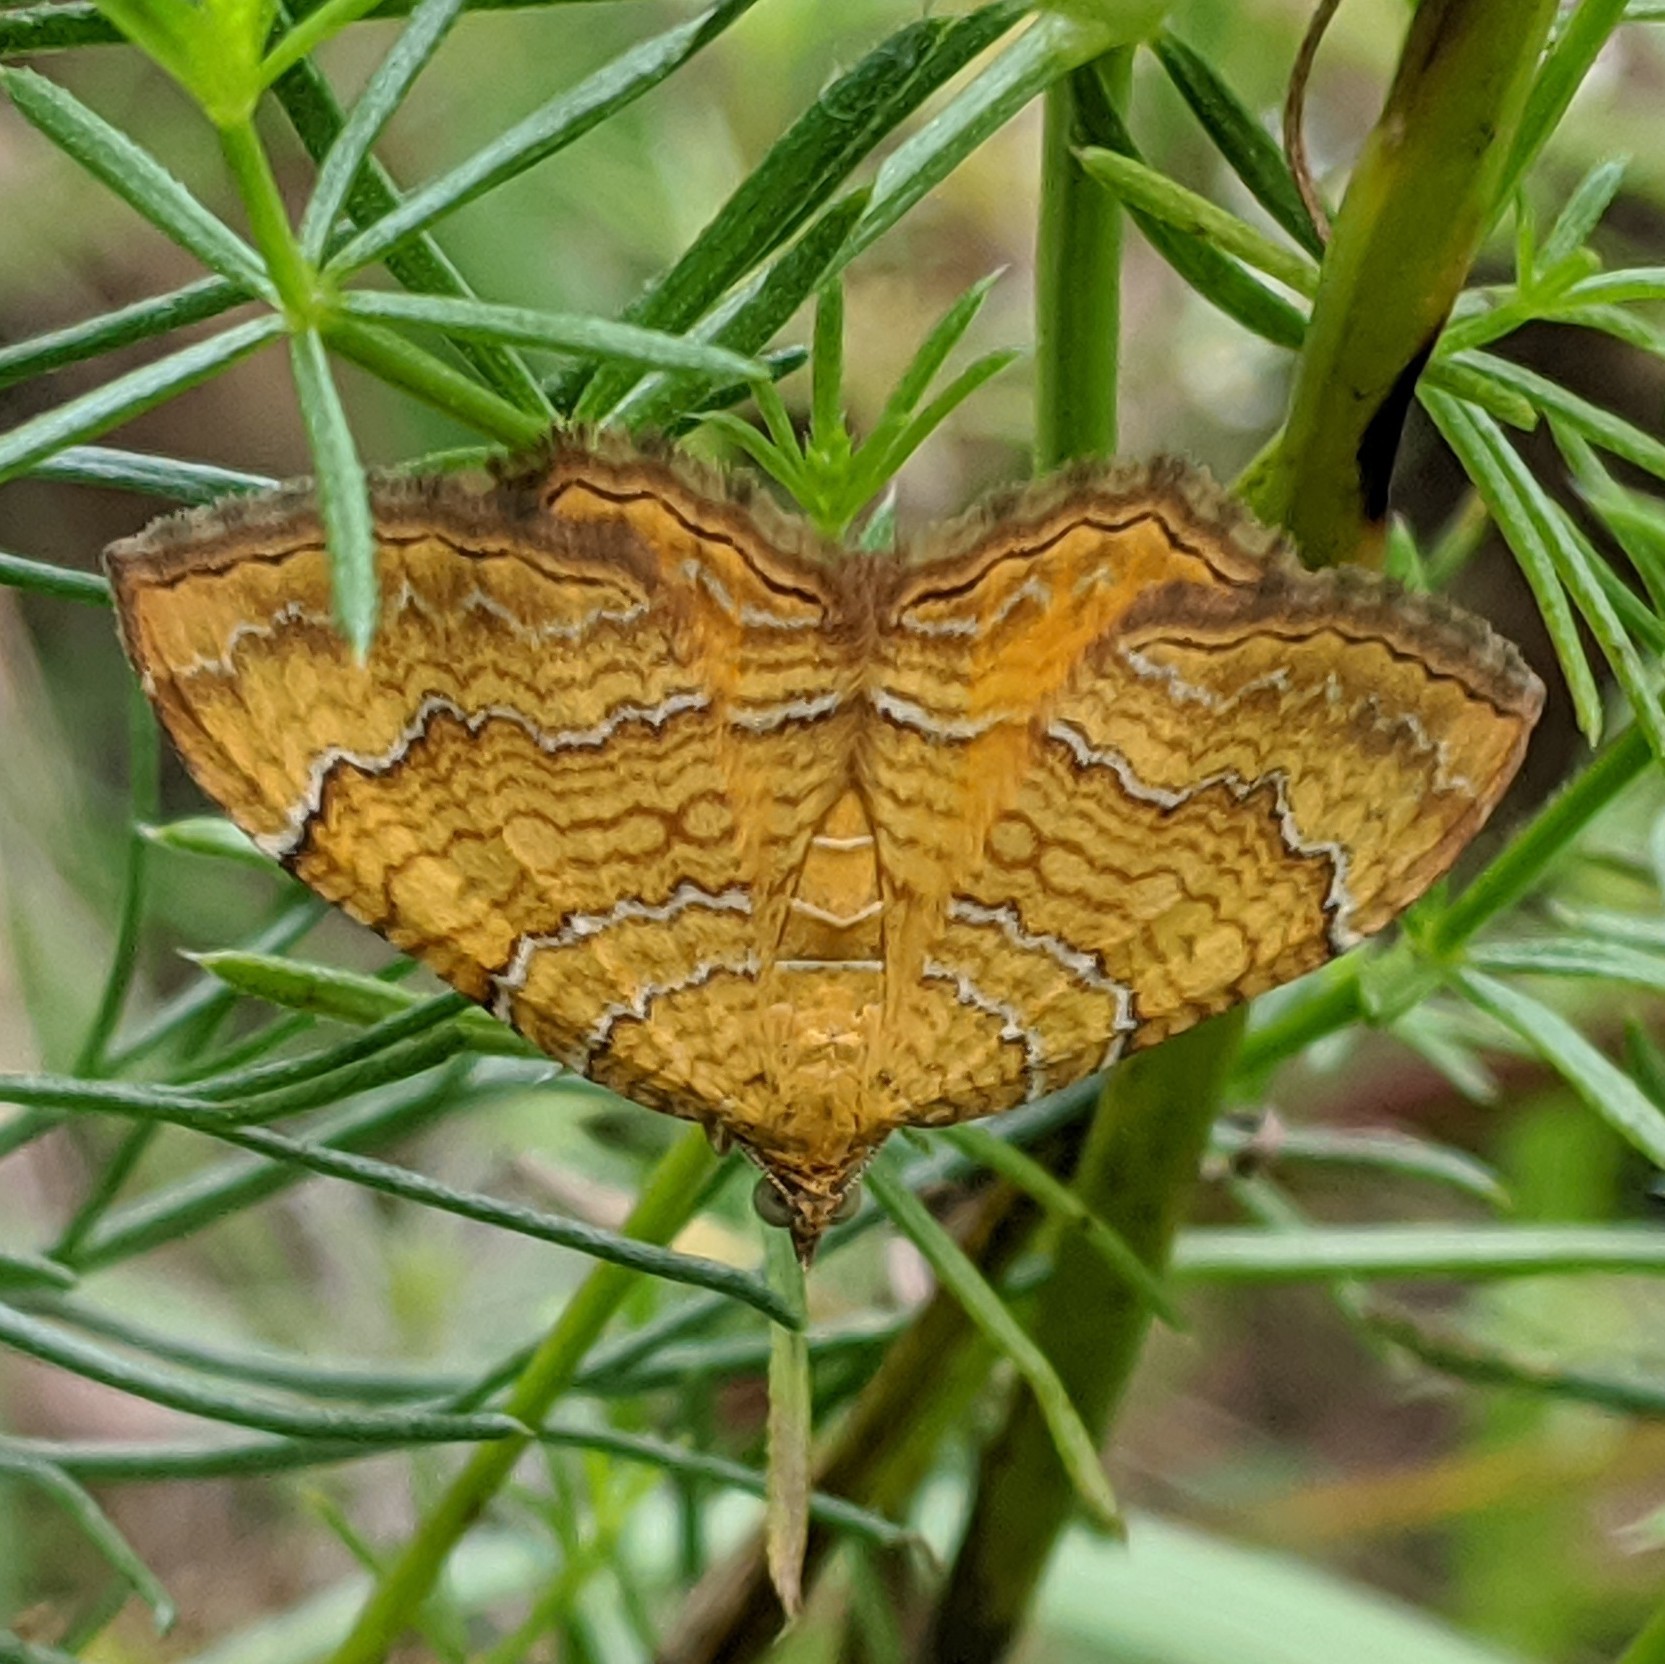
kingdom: Animalia
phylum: Arthropoda
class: Insecta
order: Lepidoptera
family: Geometridae
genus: Camptogramma
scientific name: Camptogramma bilineata
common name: Yellow shell
